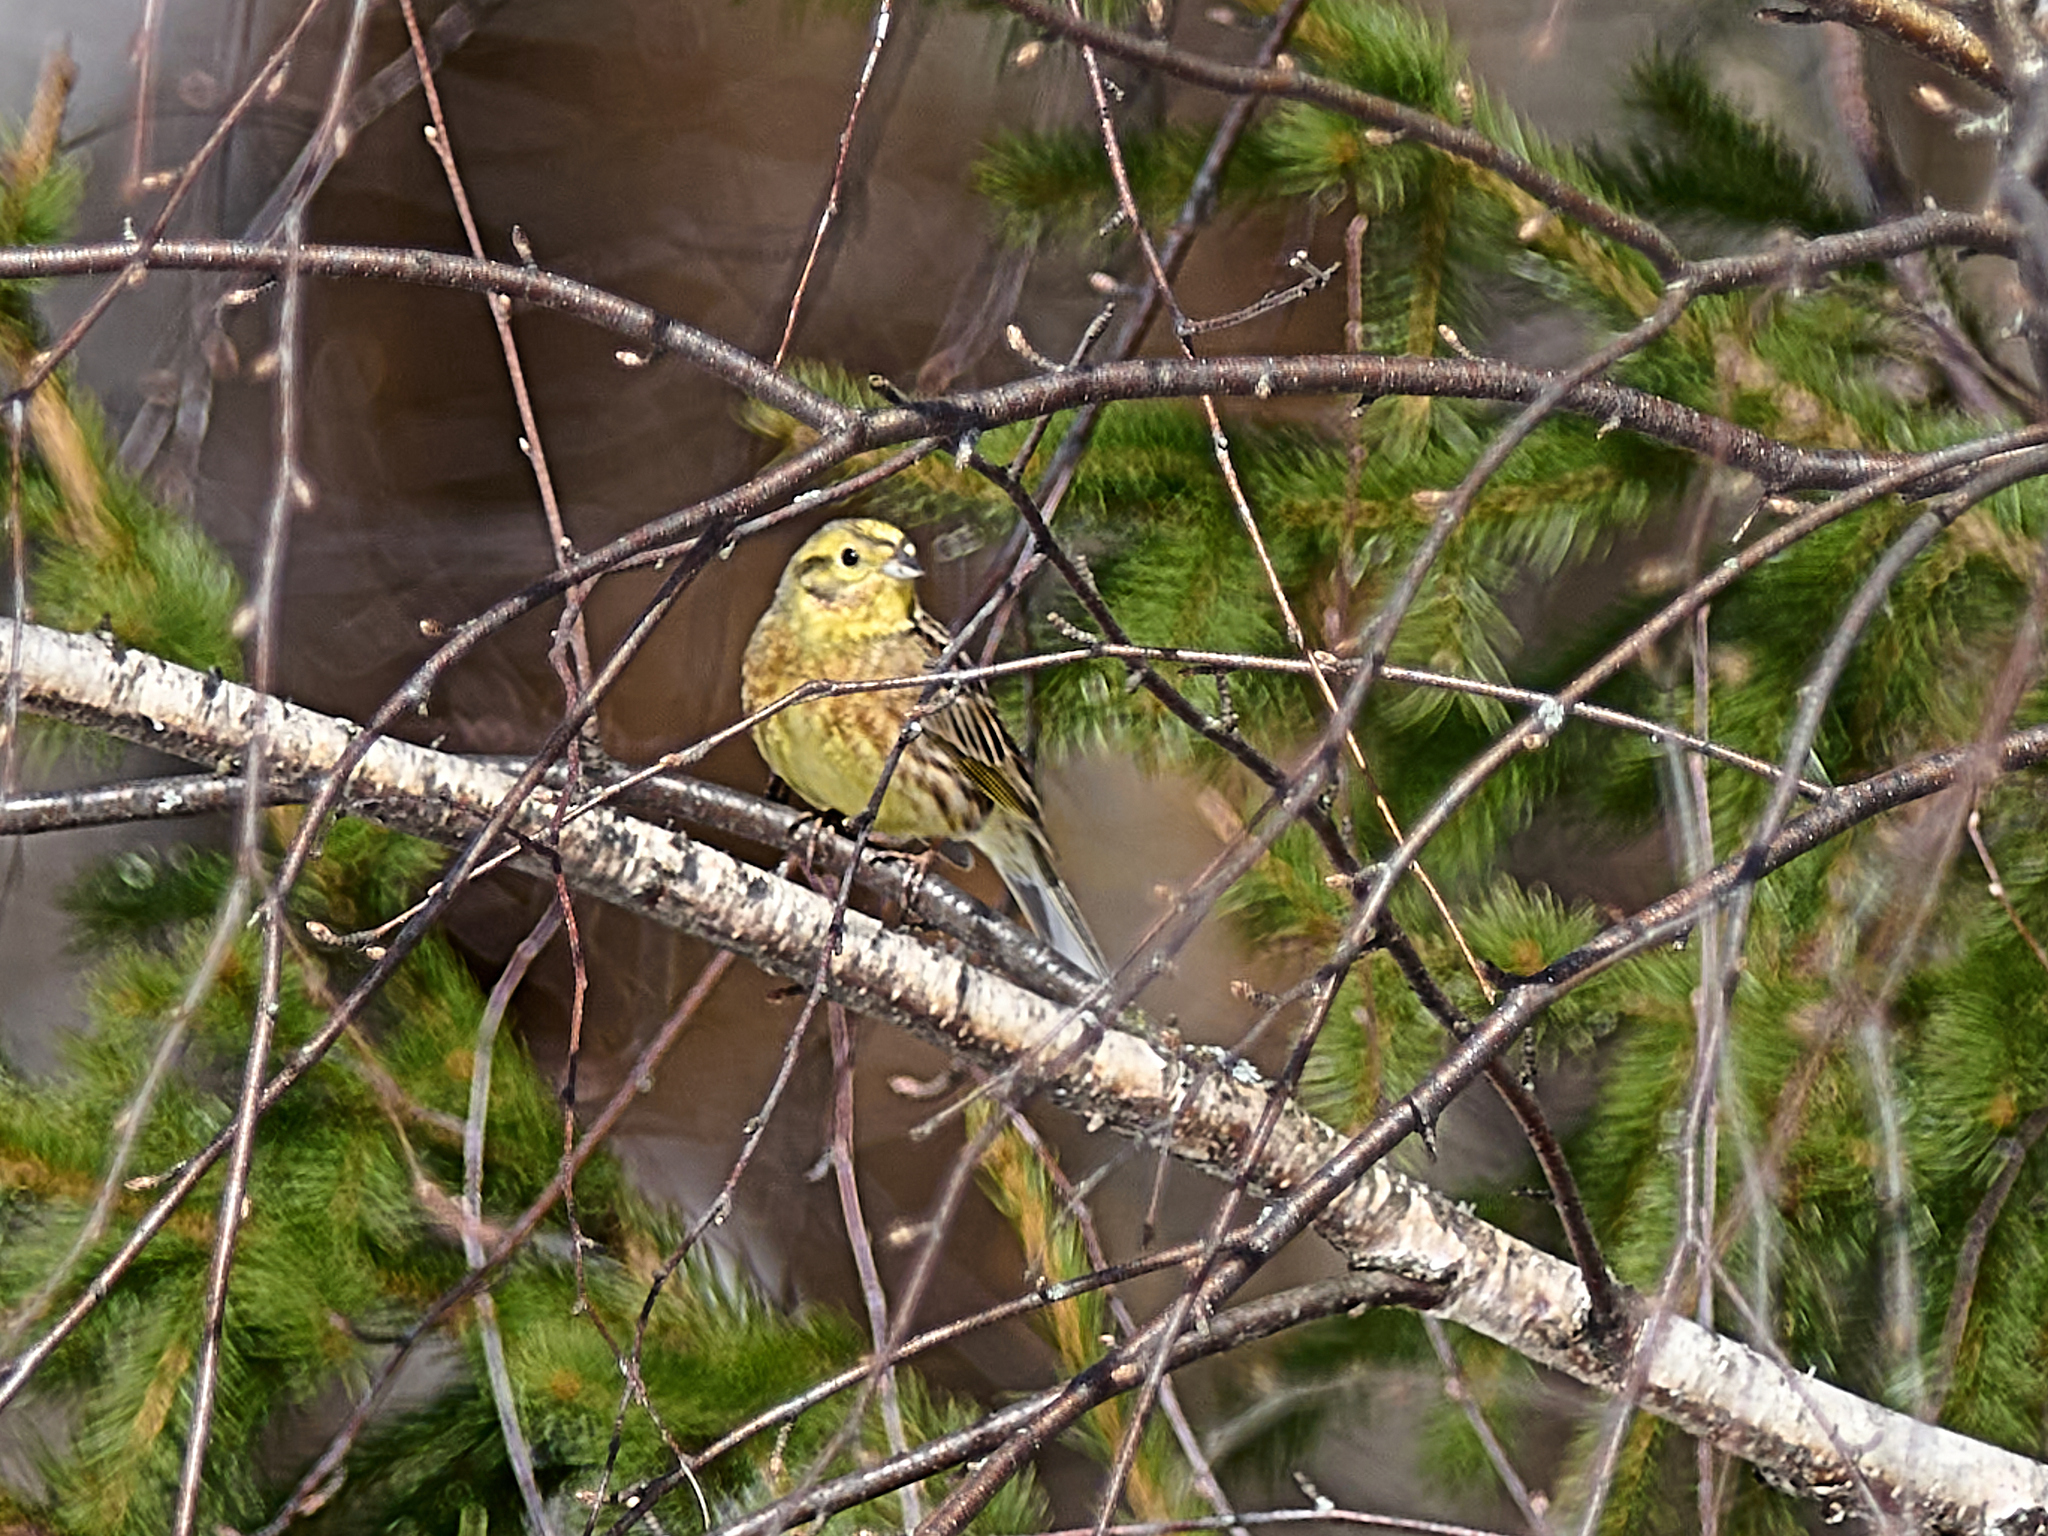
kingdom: Animalia
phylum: Chordata
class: Aves
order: Passeriformes
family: Emberizidae
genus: Emberiza
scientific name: Emberiza citrinella
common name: Yellowhammer
